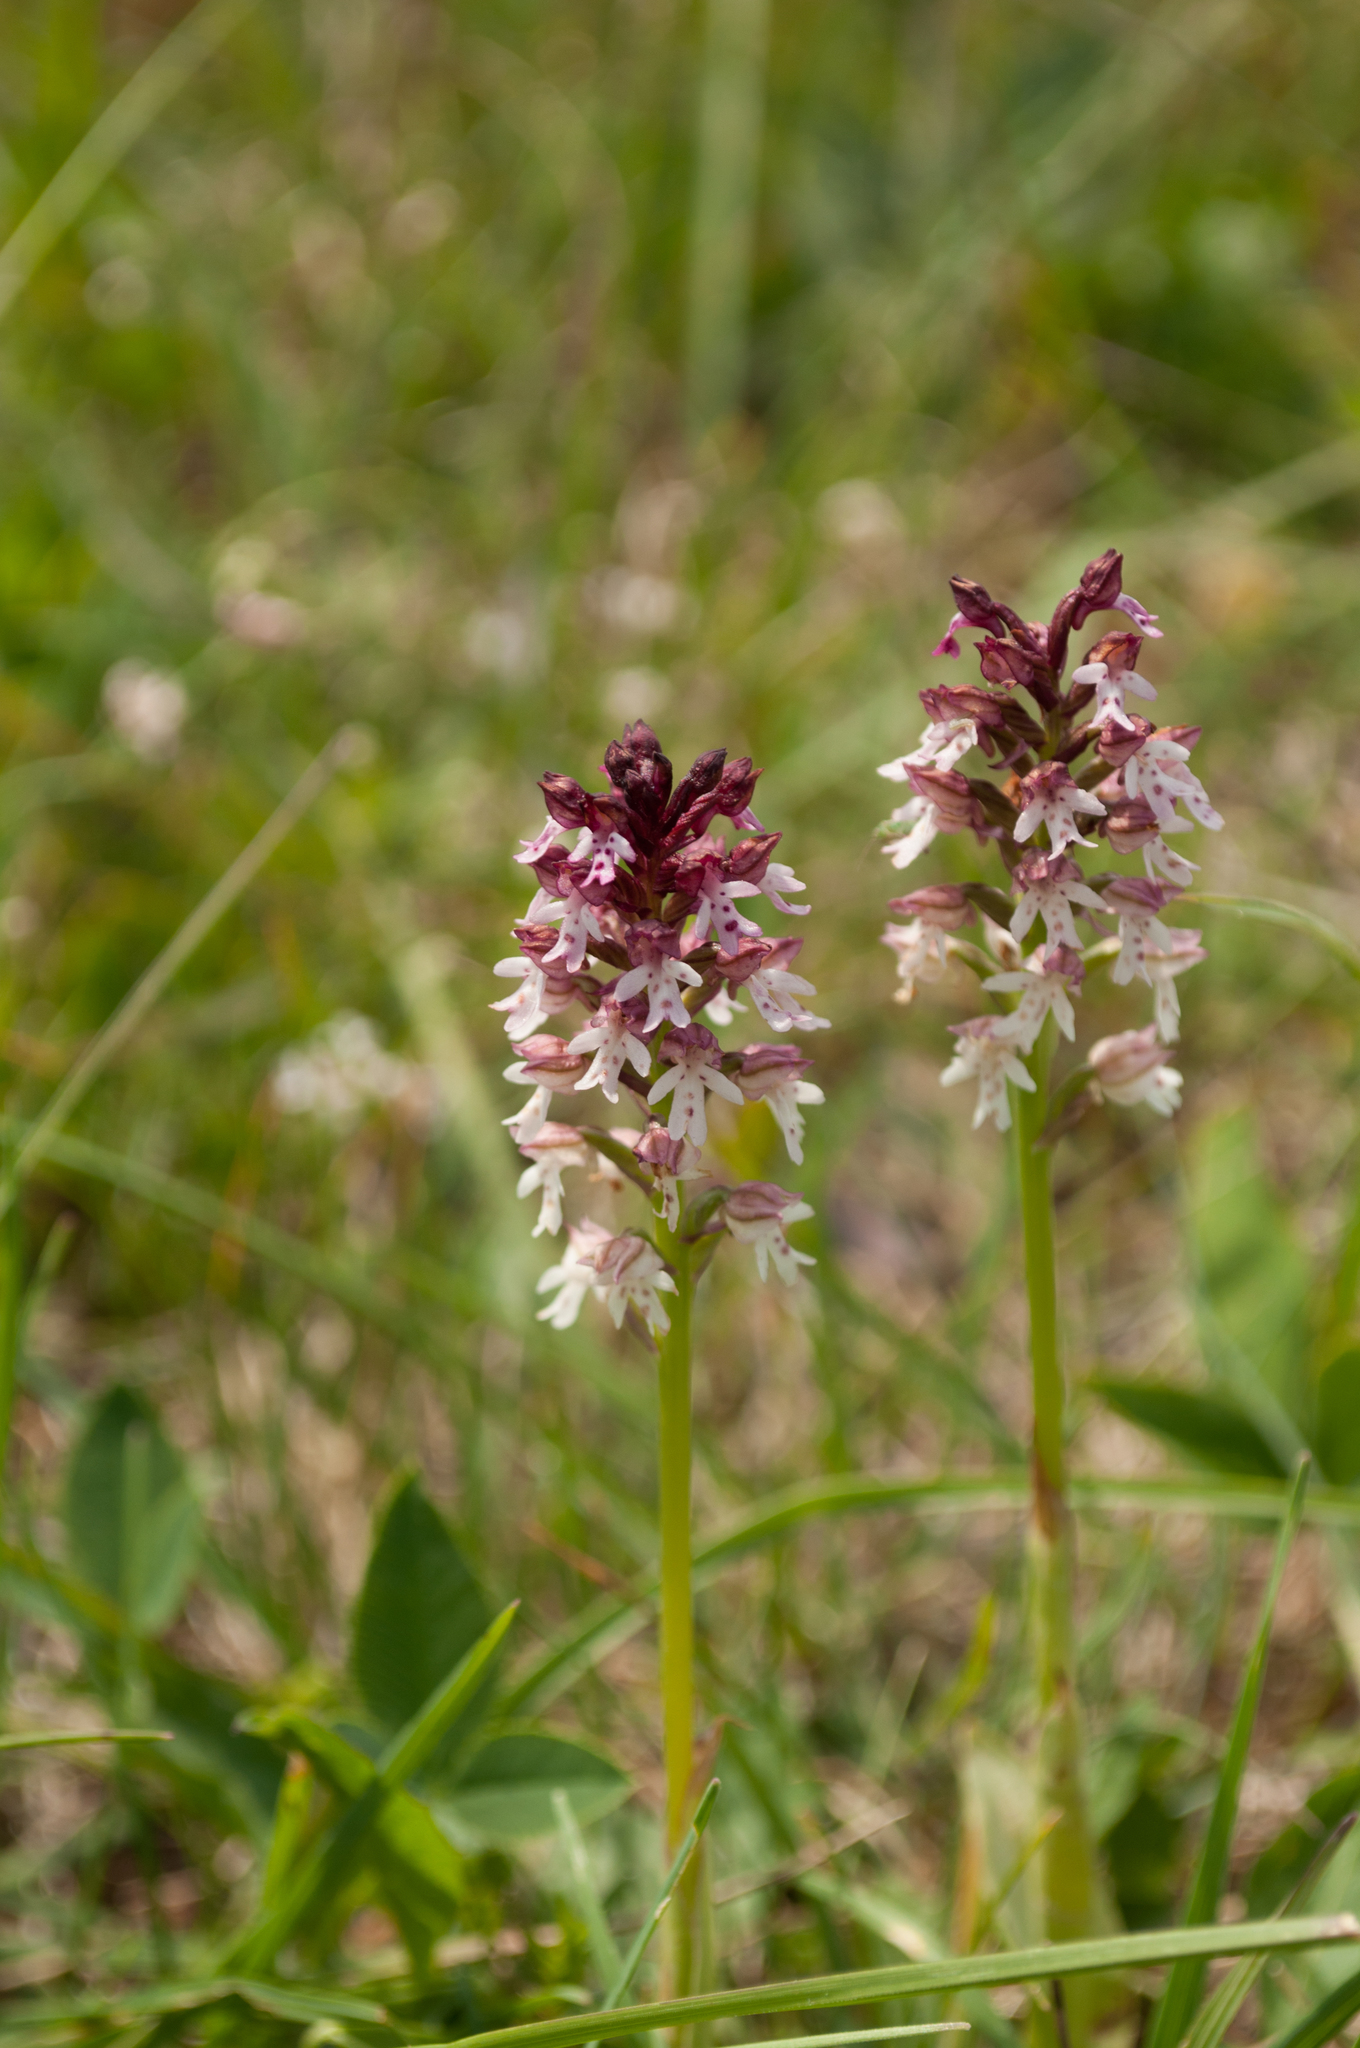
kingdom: Plantae
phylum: Tracheophyta
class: Liliopsida
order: Asparagales
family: Orchidaceae
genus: Neotinea
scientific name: Neotinea ustulata
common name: Burnt orchid
